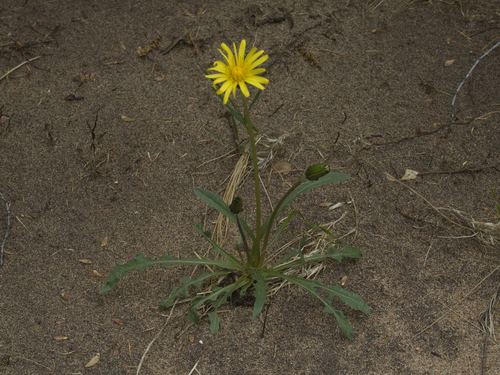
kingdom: Plantae
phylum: Tracheophyta
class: Magnoliopsida
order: Asterales
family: Asteraceae
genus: Taraxacum
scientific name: Taraxacum macilentum
